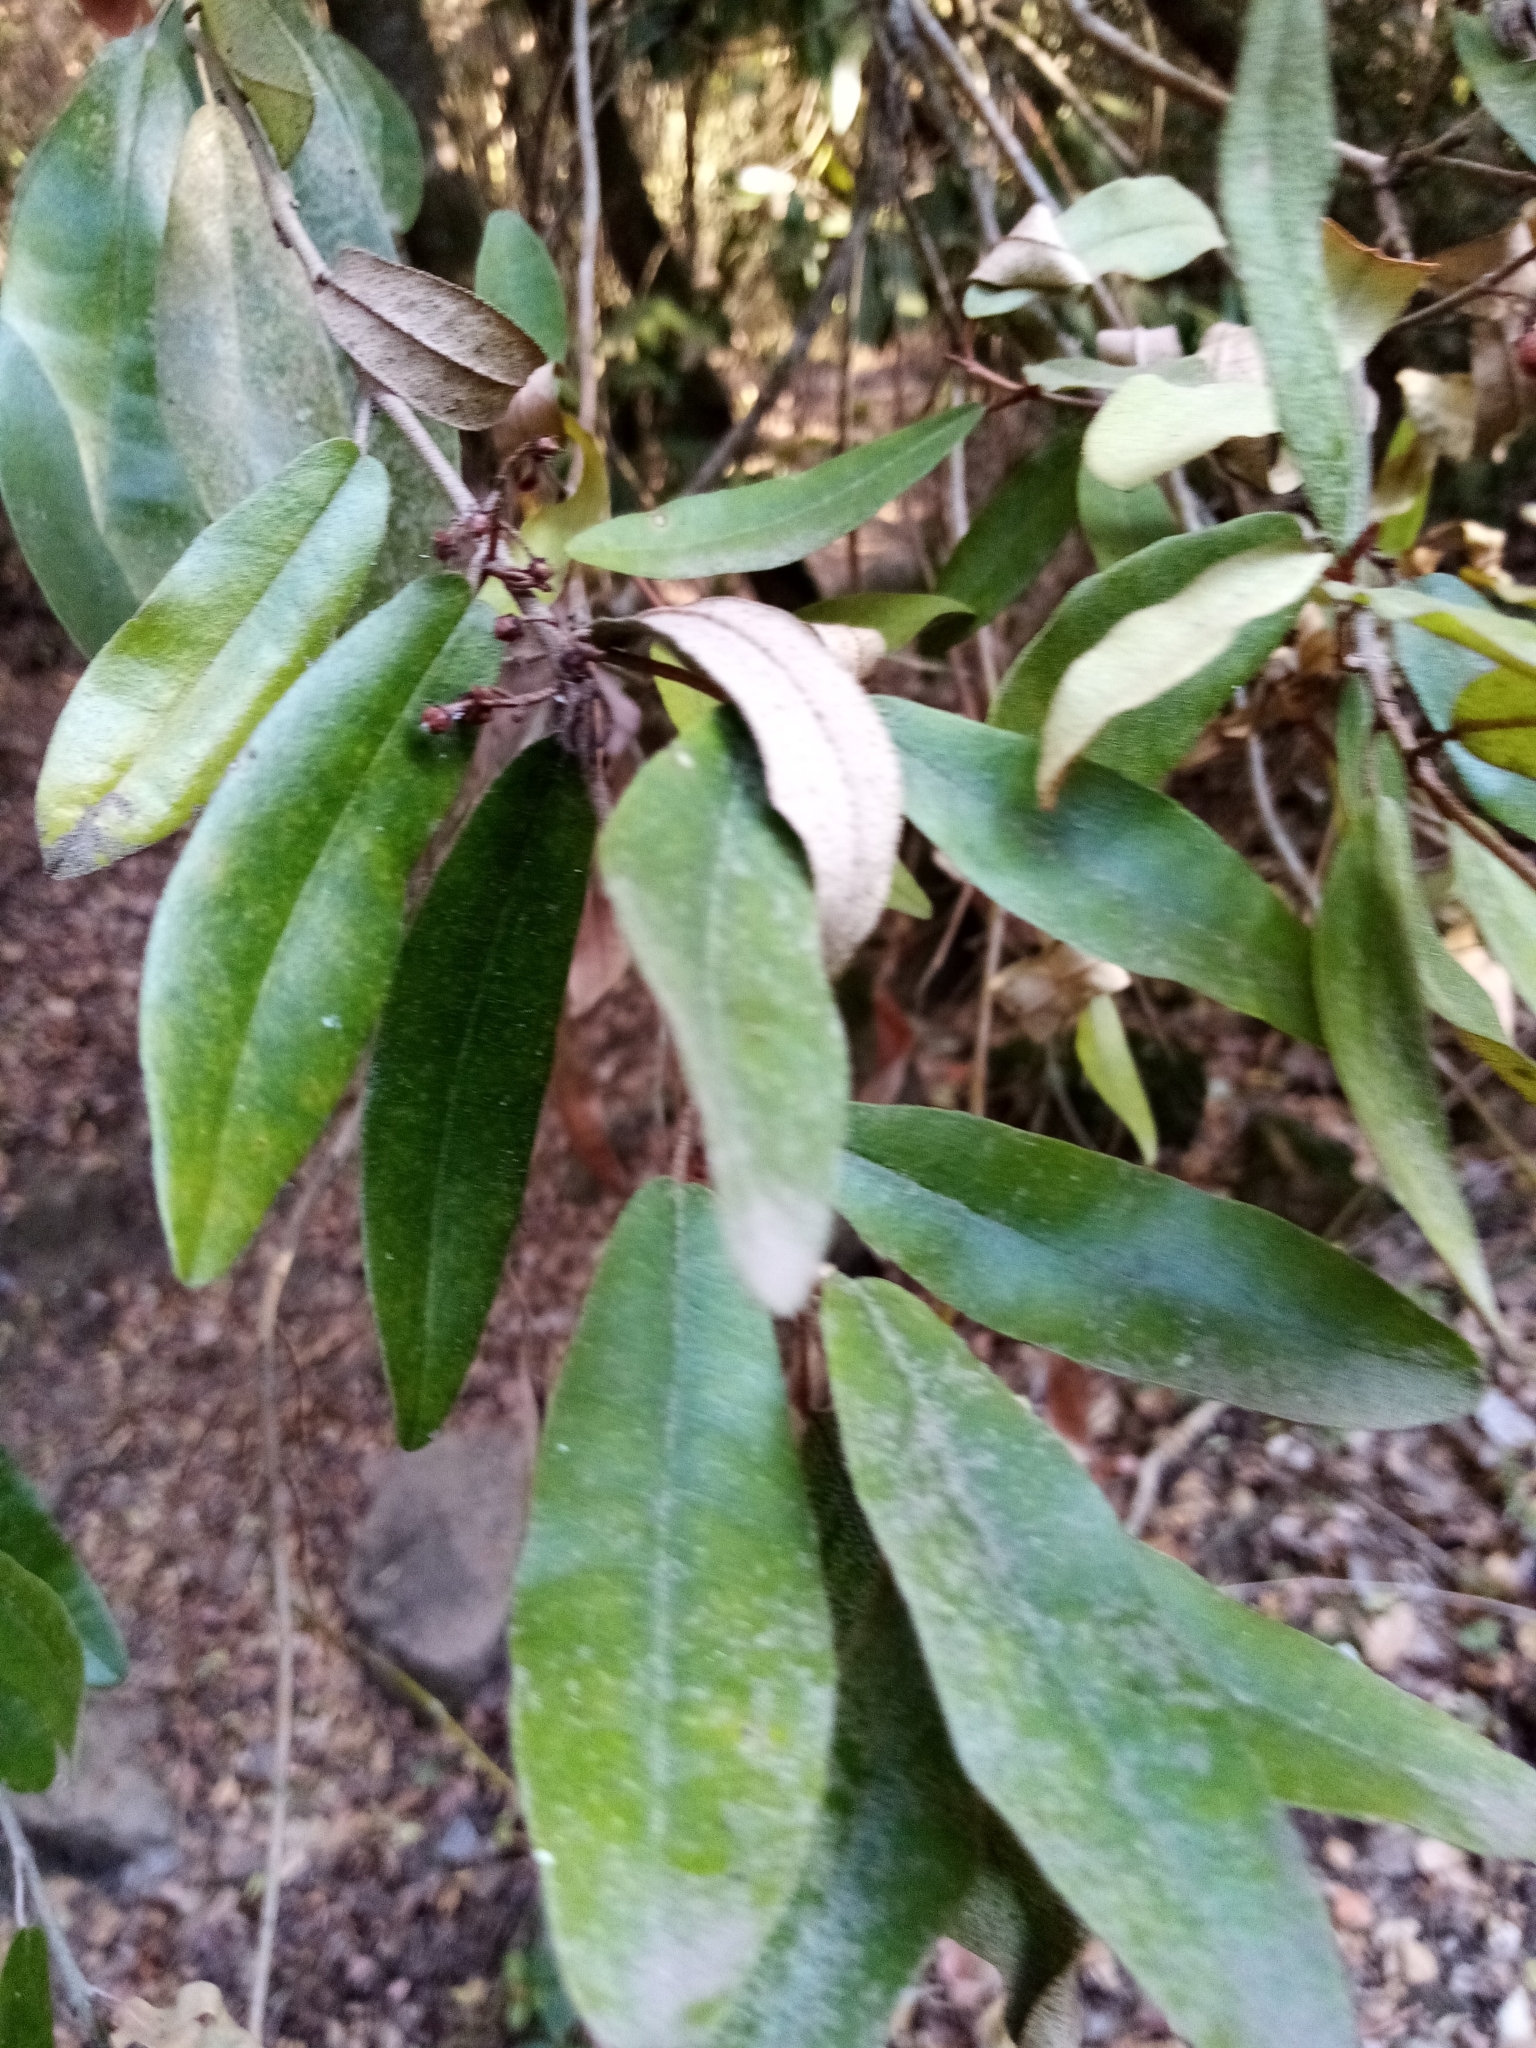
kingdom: Plantae
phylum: Tracheophyta
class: Magnoliopsida
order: Berberidopsidales
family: Aextoxicaceae
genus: Aextoxicon
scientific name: Aextoxicon punctatum
